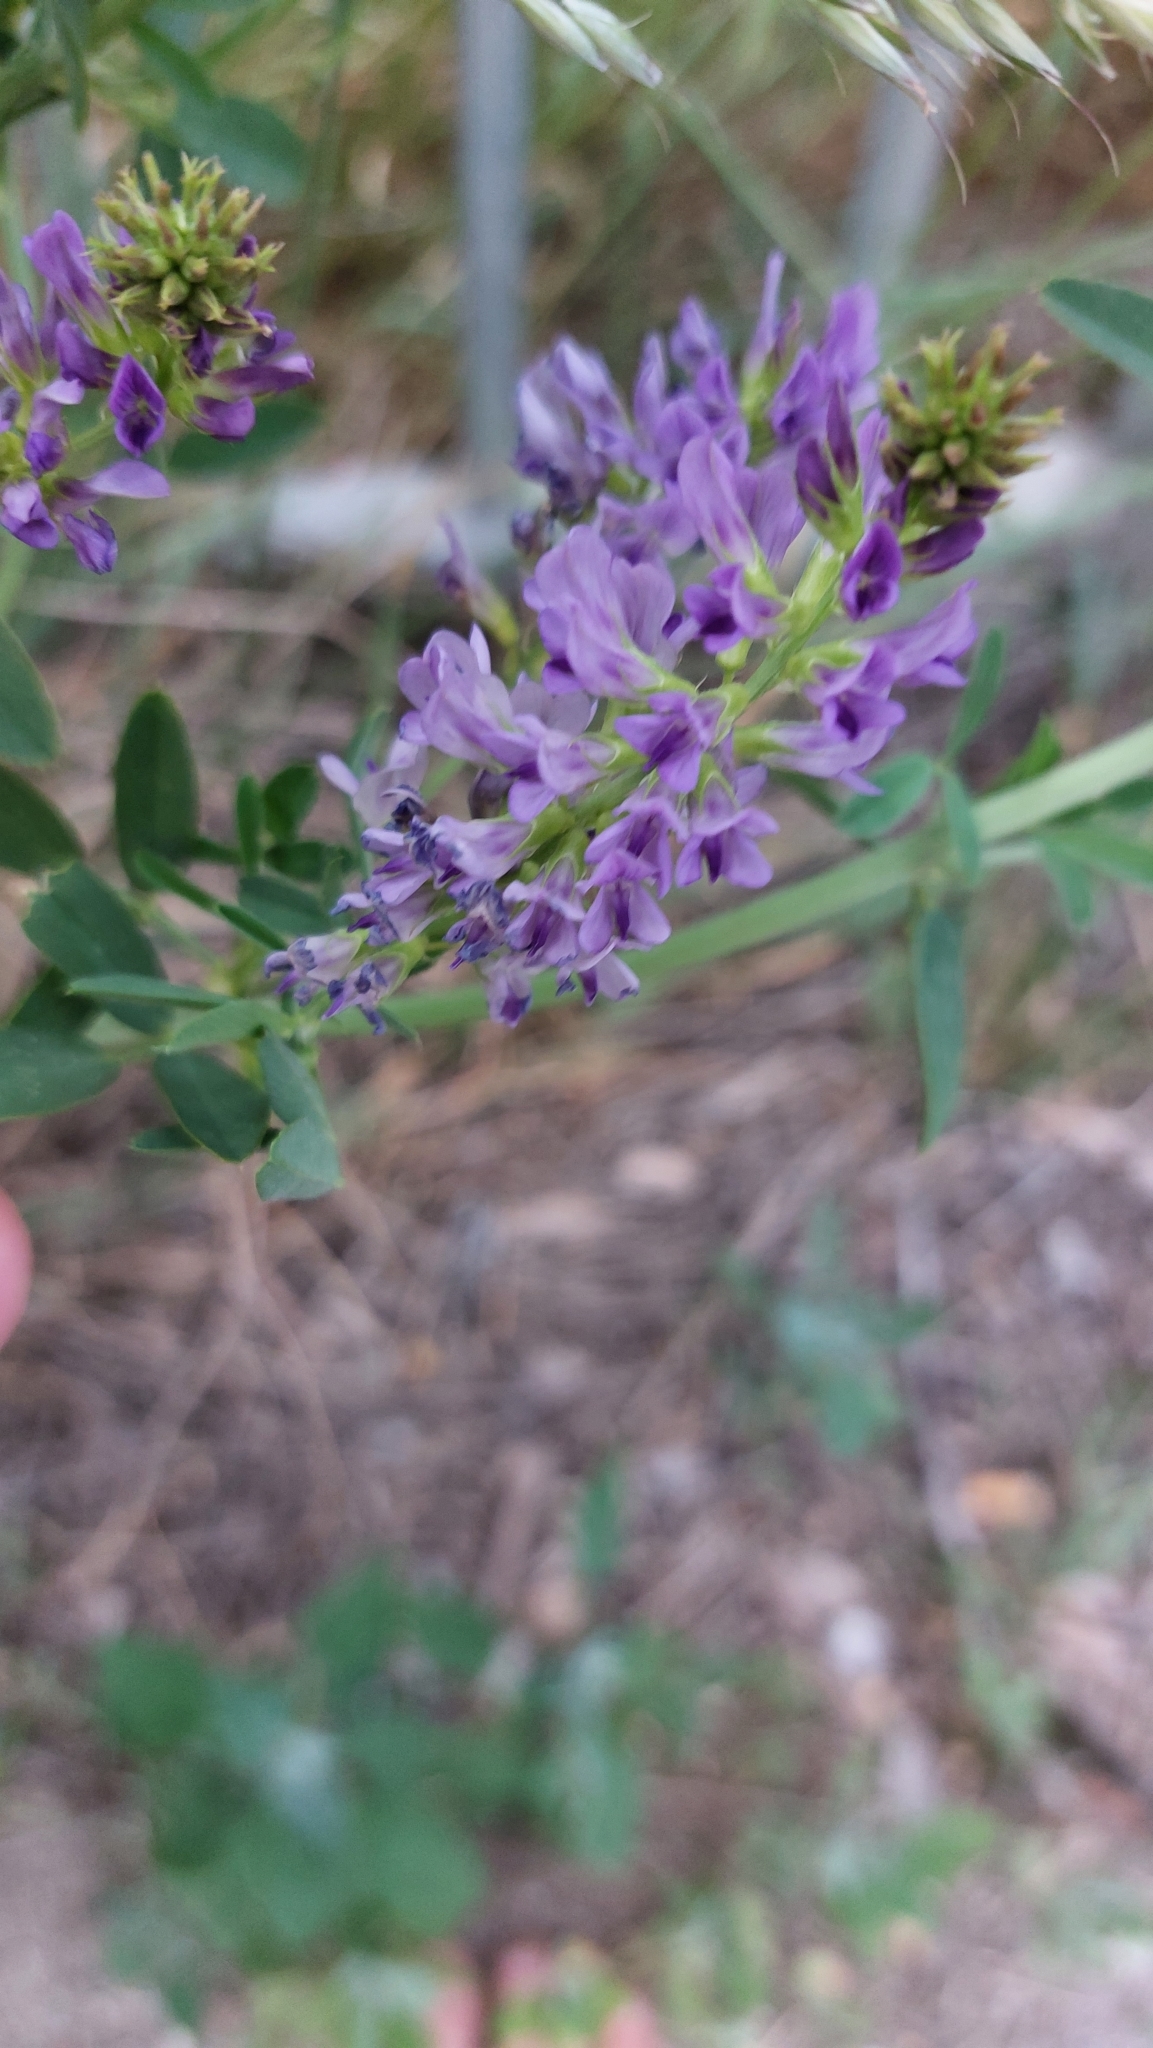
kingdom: Plantae
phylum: Tracheophyta
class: Magnoliopsida
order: Fabales
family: Fabaceae
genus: Medicago
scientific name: Medicago
